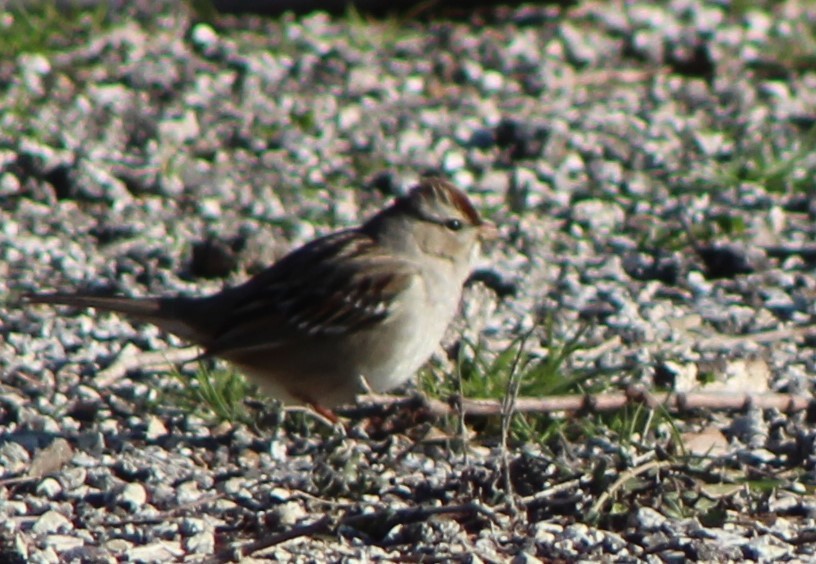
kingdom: Animalia
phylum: Chordata
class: Aves
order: Passeriformes
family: Passerellidae
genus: Zonotrichia
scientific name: Zonotrichia leucophrys
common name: White-crowned sparrow
